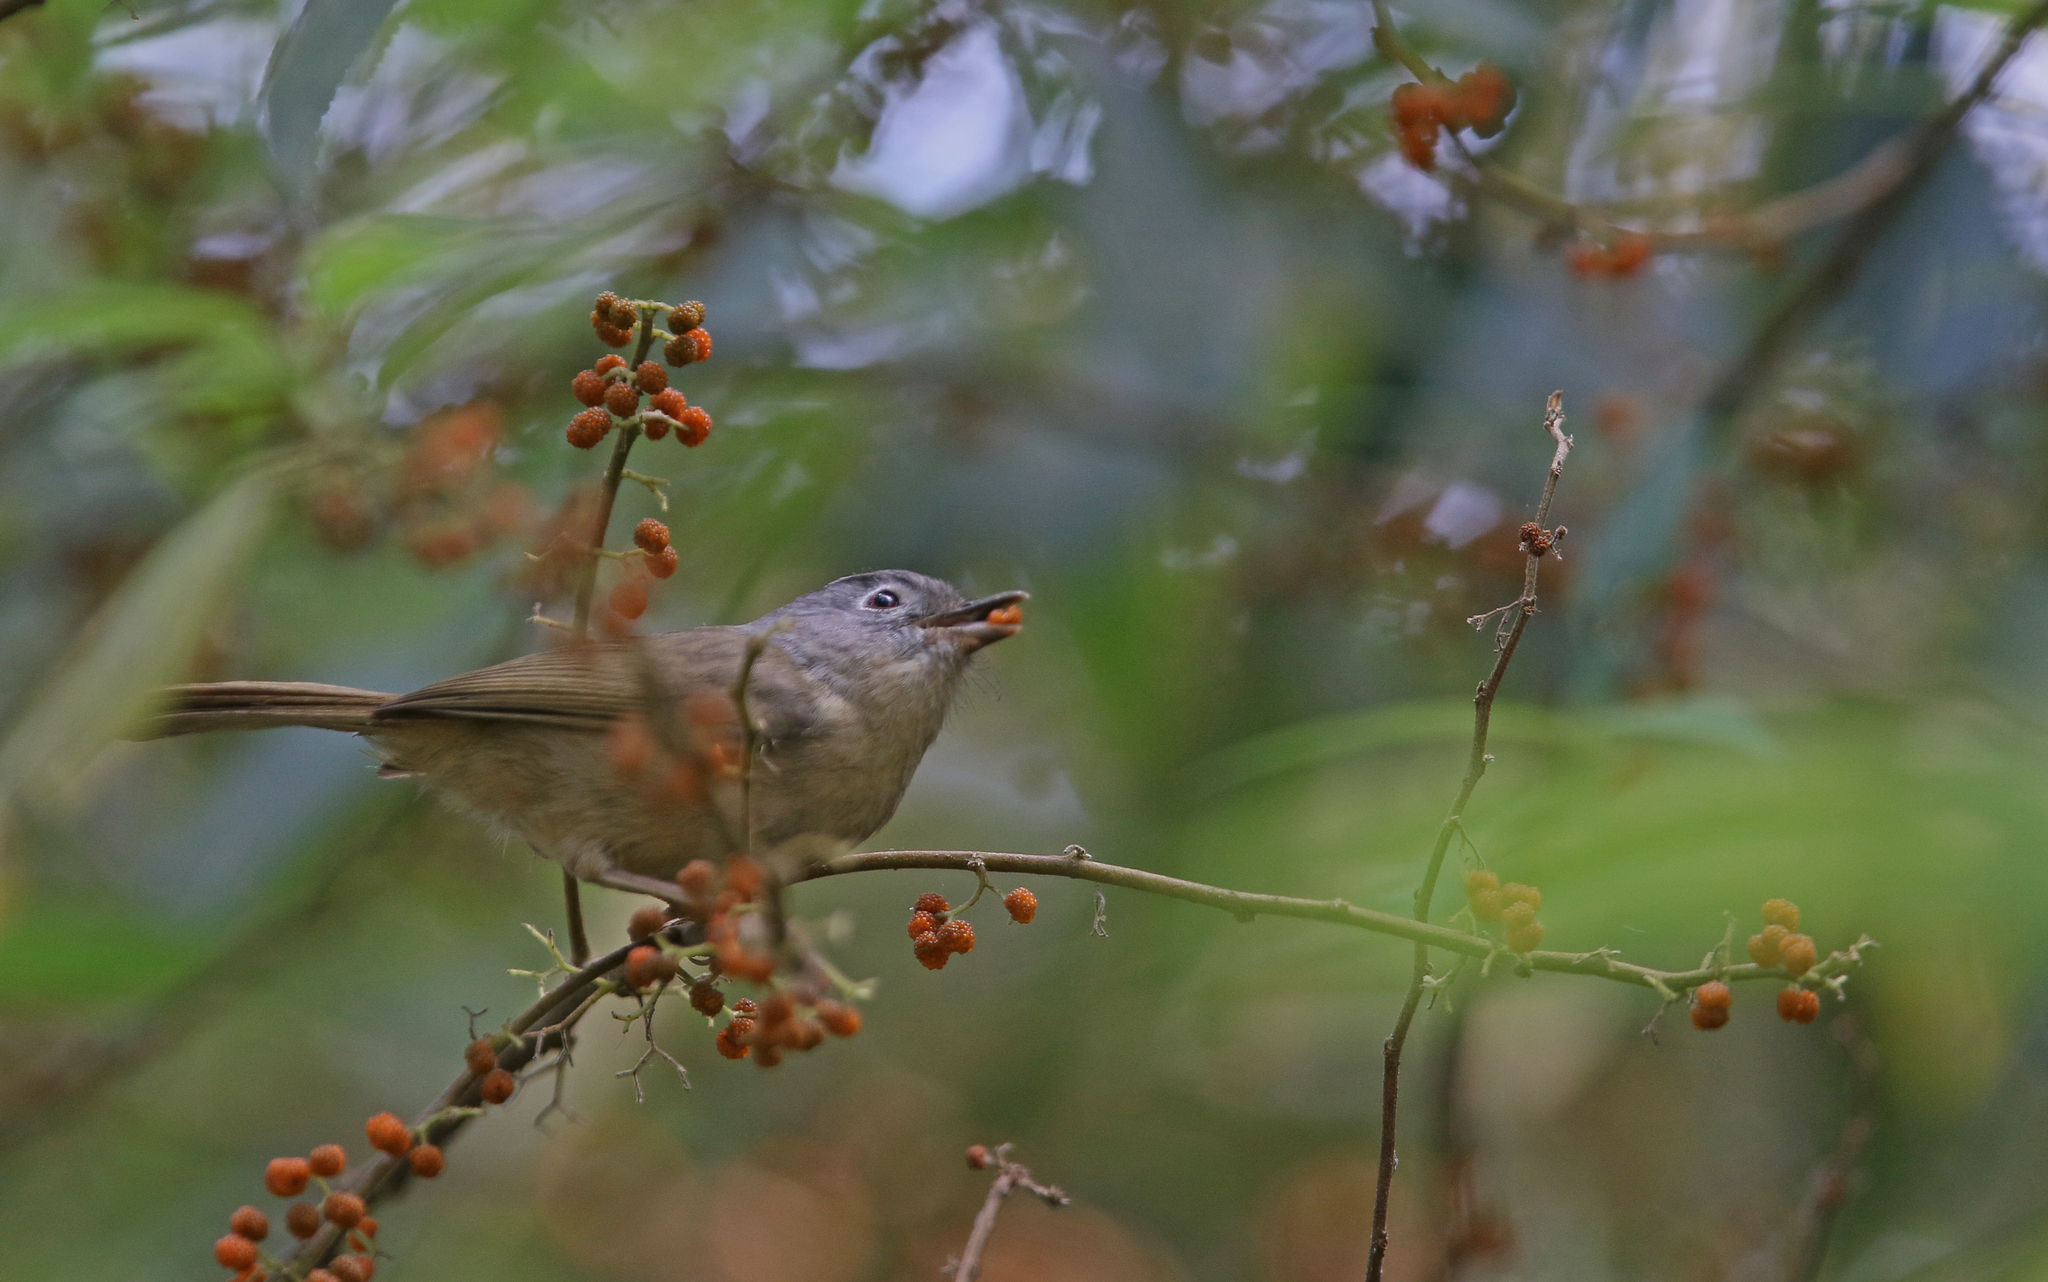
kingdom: Animalia
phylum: Chordata
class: Aves
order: Passeriformes
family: Pellorneidae
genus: Alcippe
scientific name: Alcippe fratercula
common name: Yunnan fulvetta
